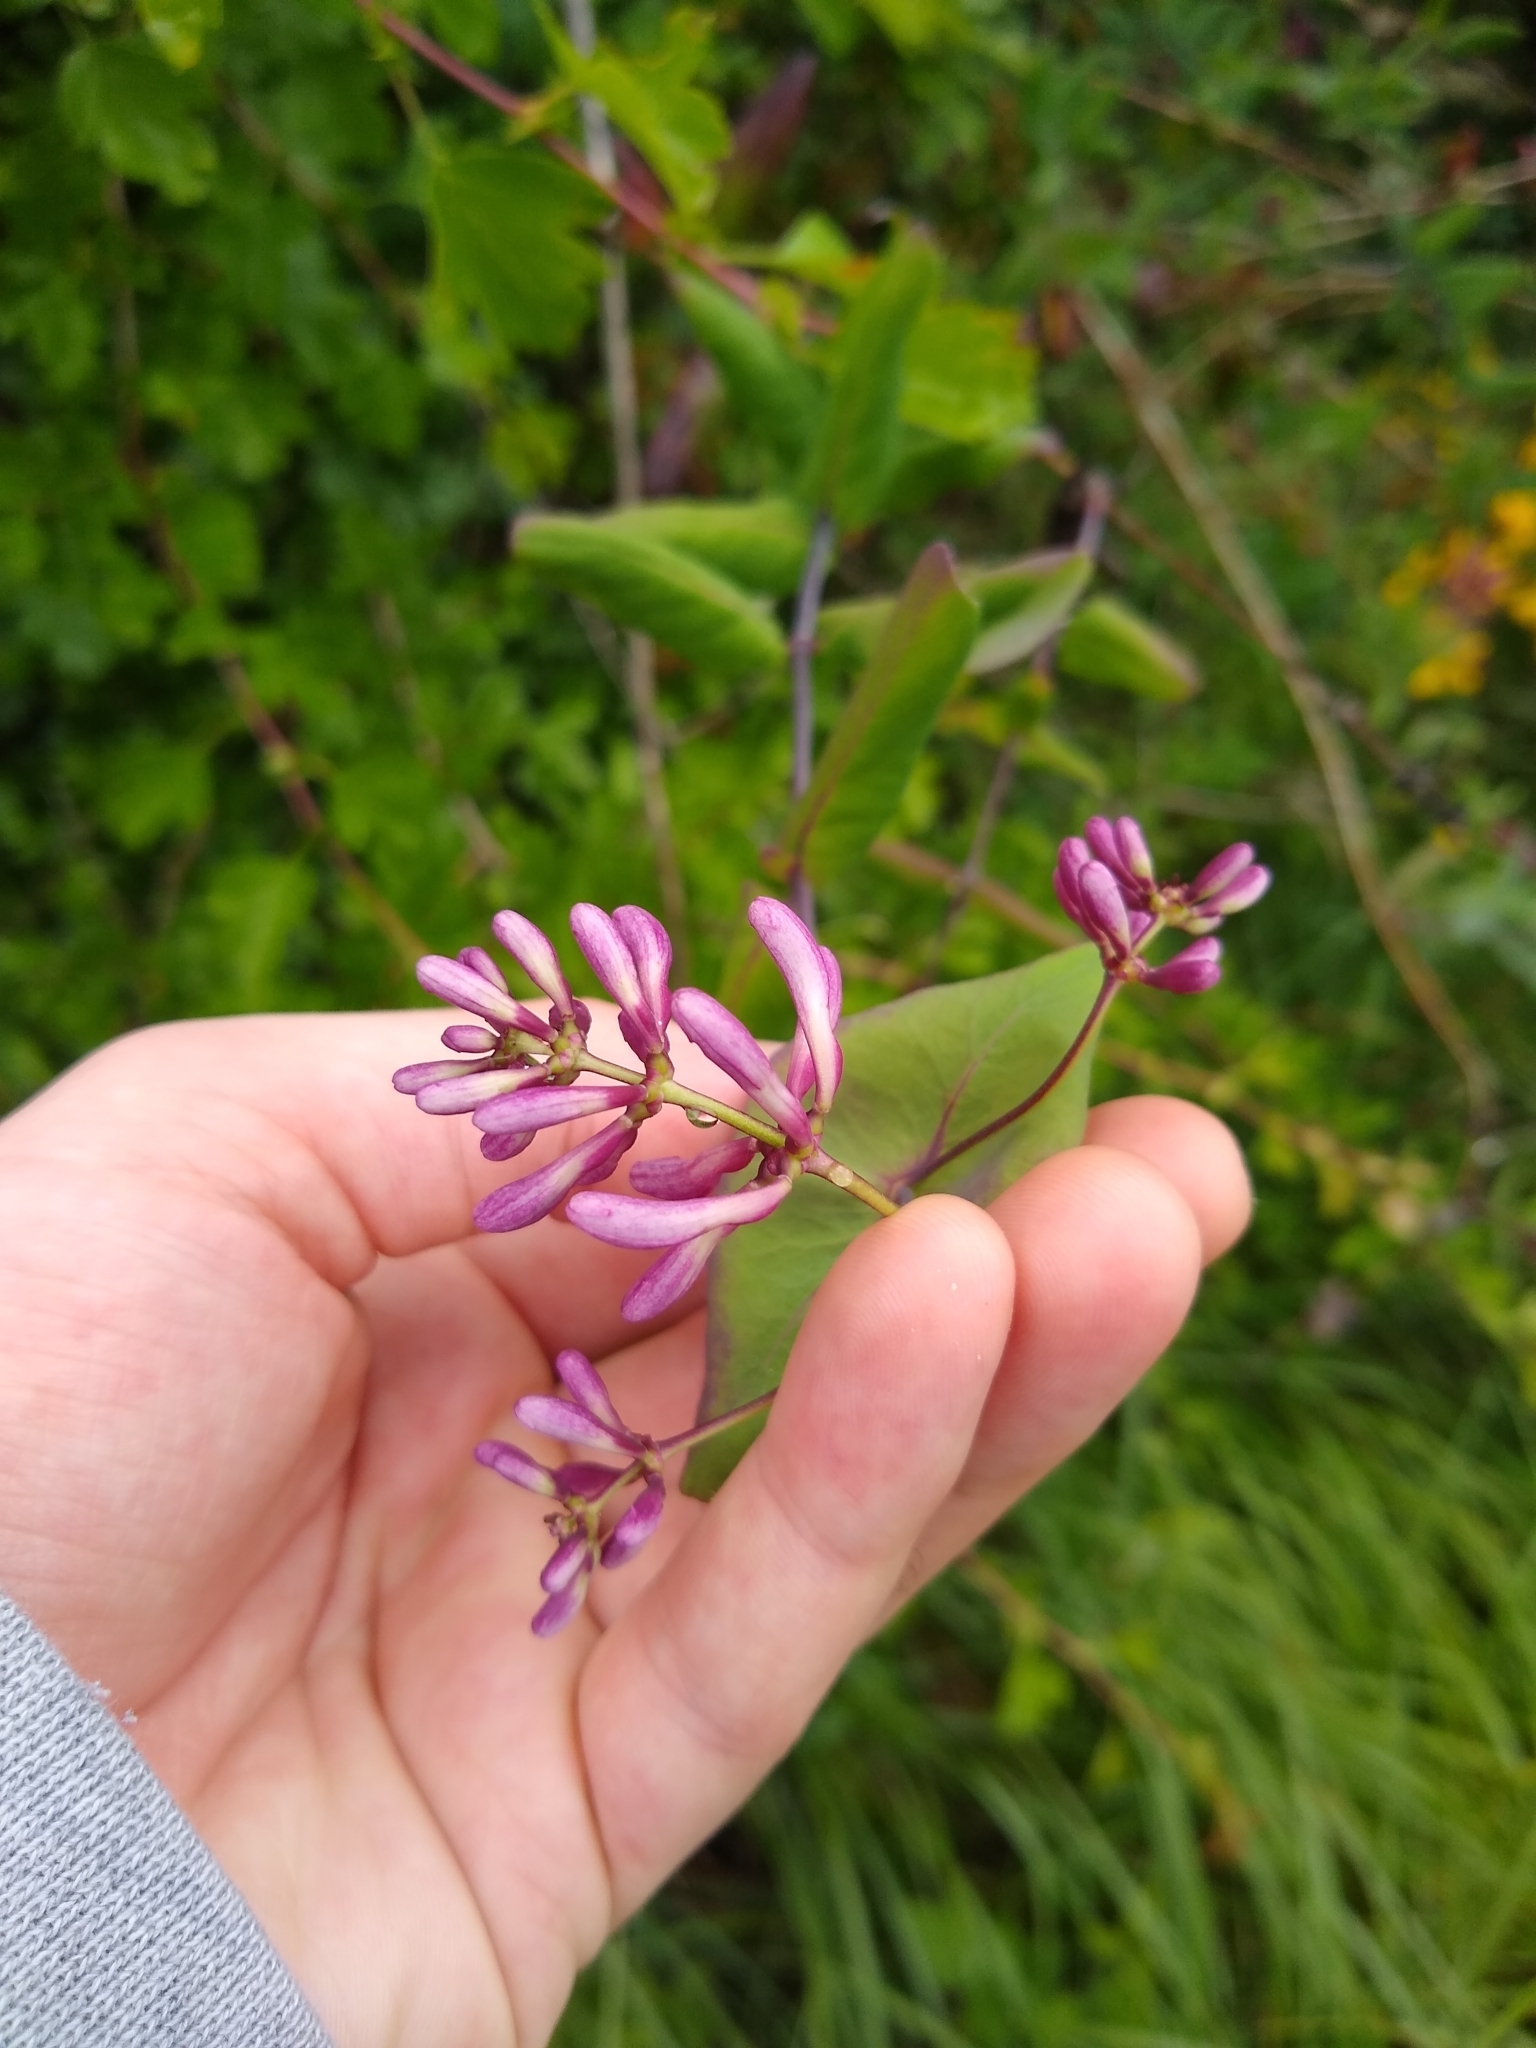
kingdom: Plantae
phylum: Tracheophyta
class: Magnoliopsida
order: Dipsacales
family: Caprifoliaceae
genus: Lonicera
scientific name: Lonicera hispidula
